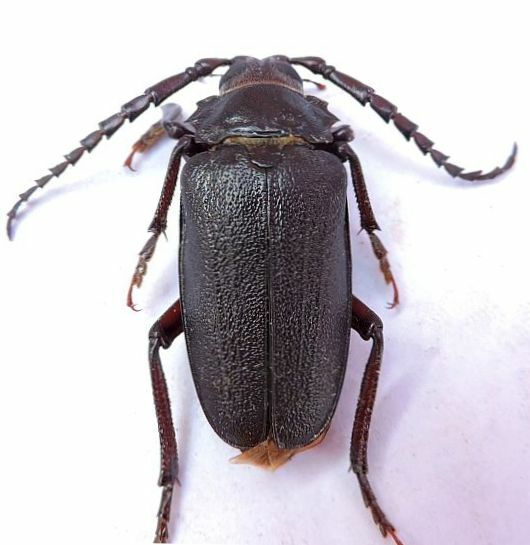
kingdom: Animalia
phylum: Arthropoda
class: Insecta
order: Coleoptera
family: Cerambycidae
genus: Prionus
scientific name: Prionus laticollis
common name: Broad necked prionus
